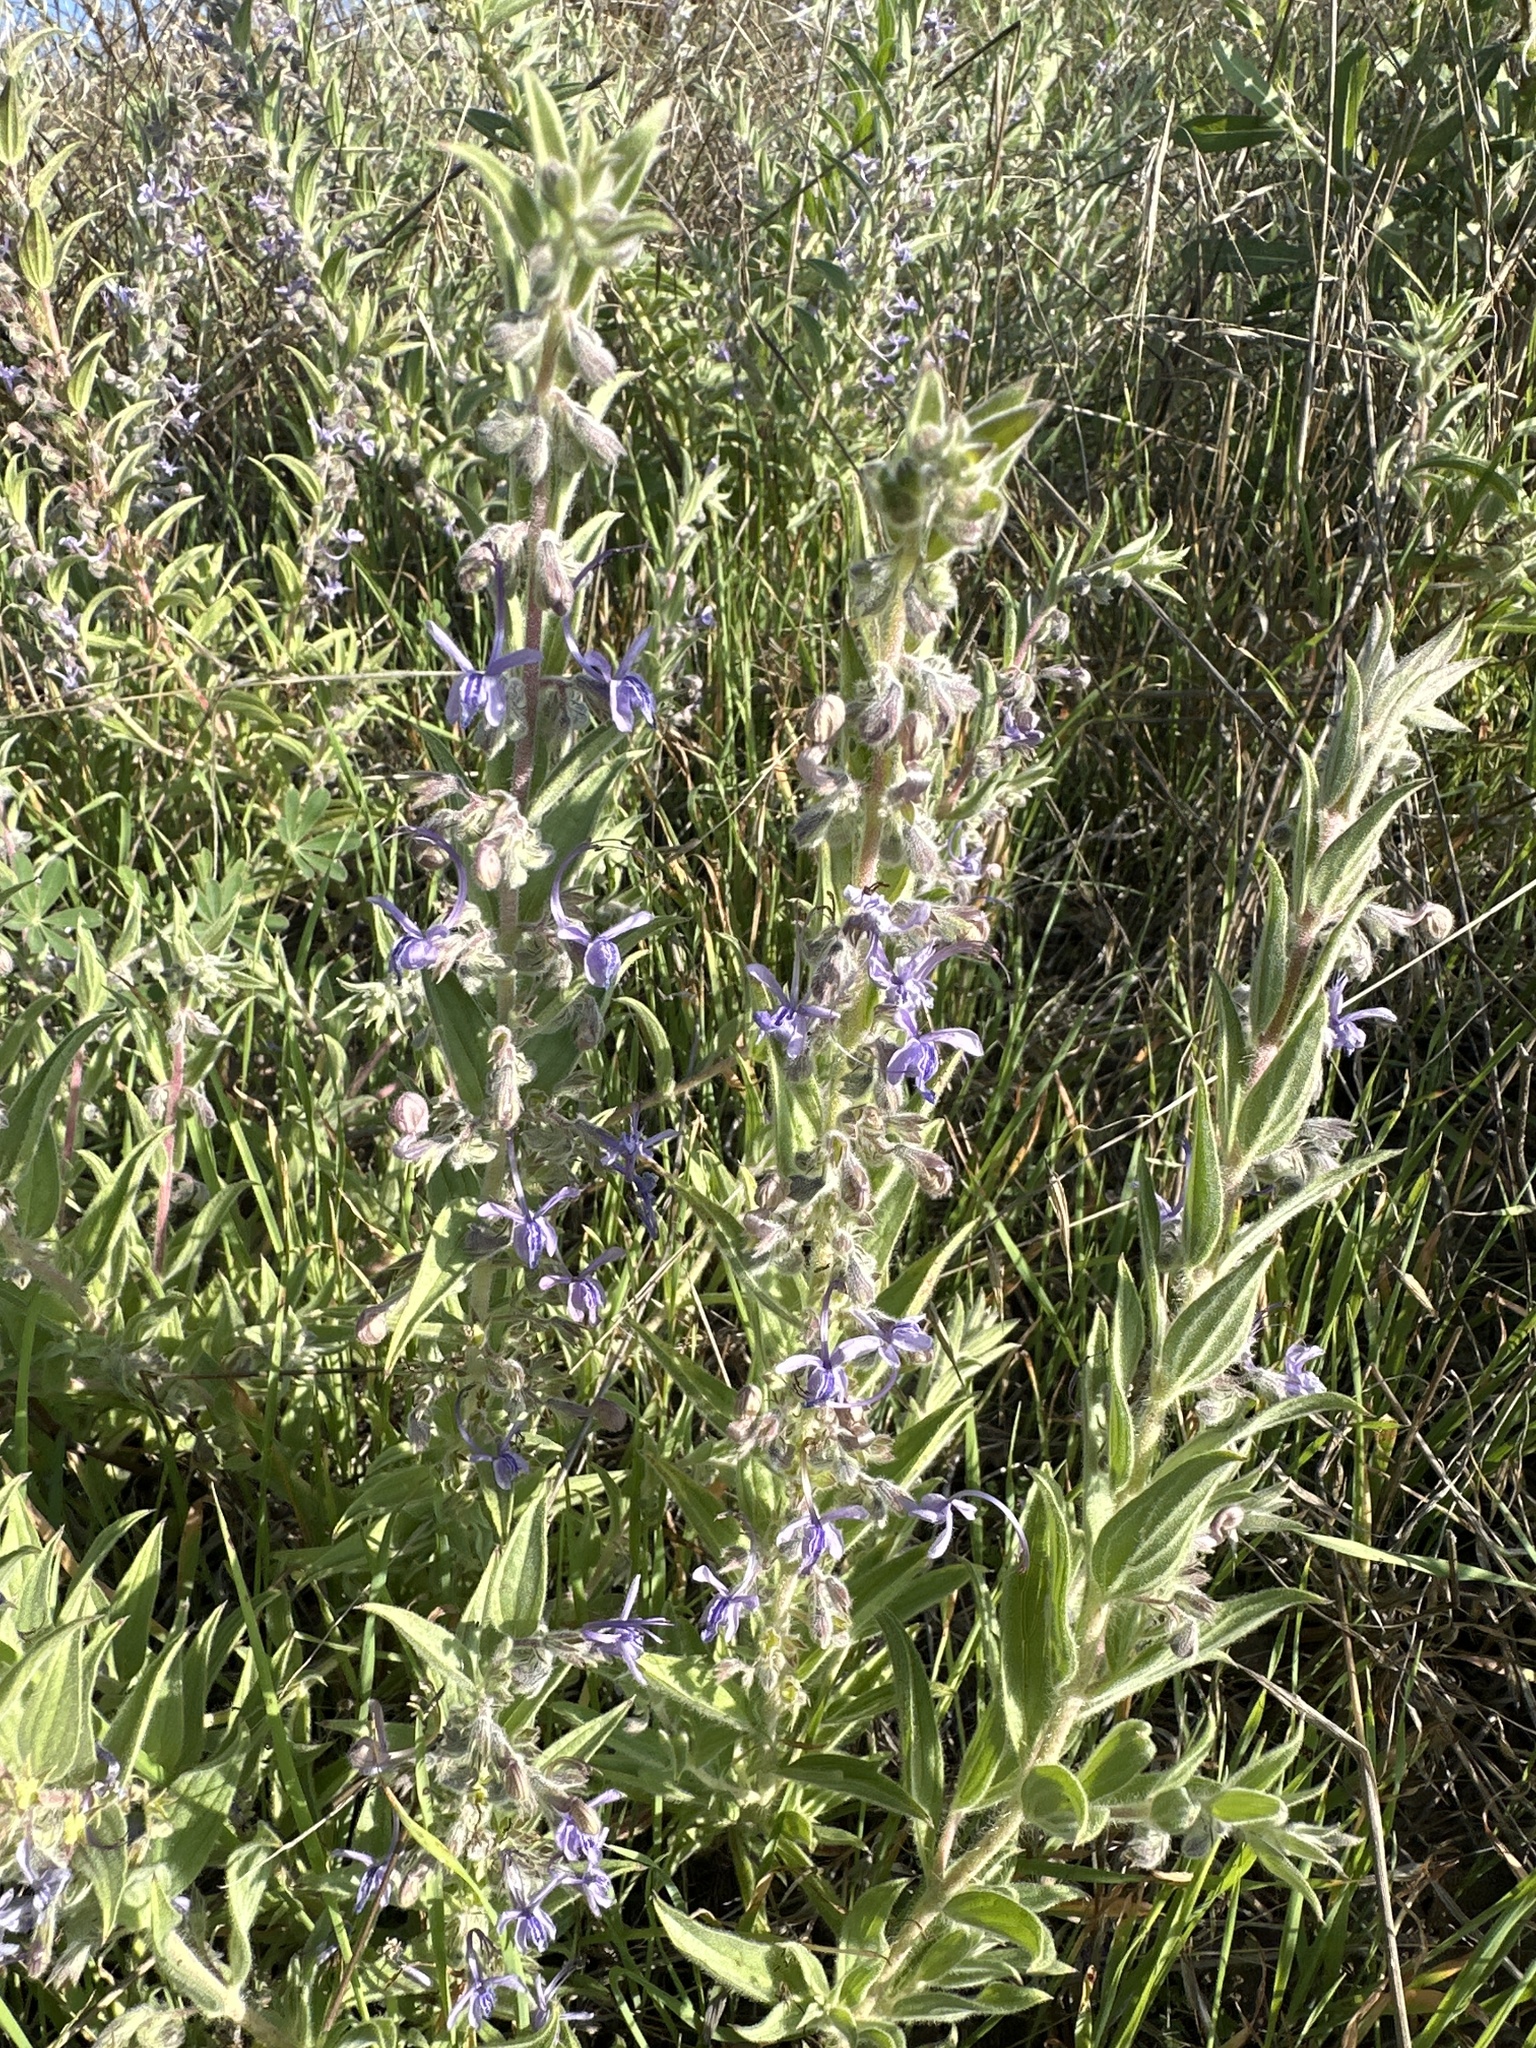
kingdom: Plantae
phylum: Tracheophyta
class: Magnoliopsida
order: Lamiales
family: Lamiaceae
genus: Trichostema
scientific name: Trichostema lanceolatum
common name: Vinegar-weed
